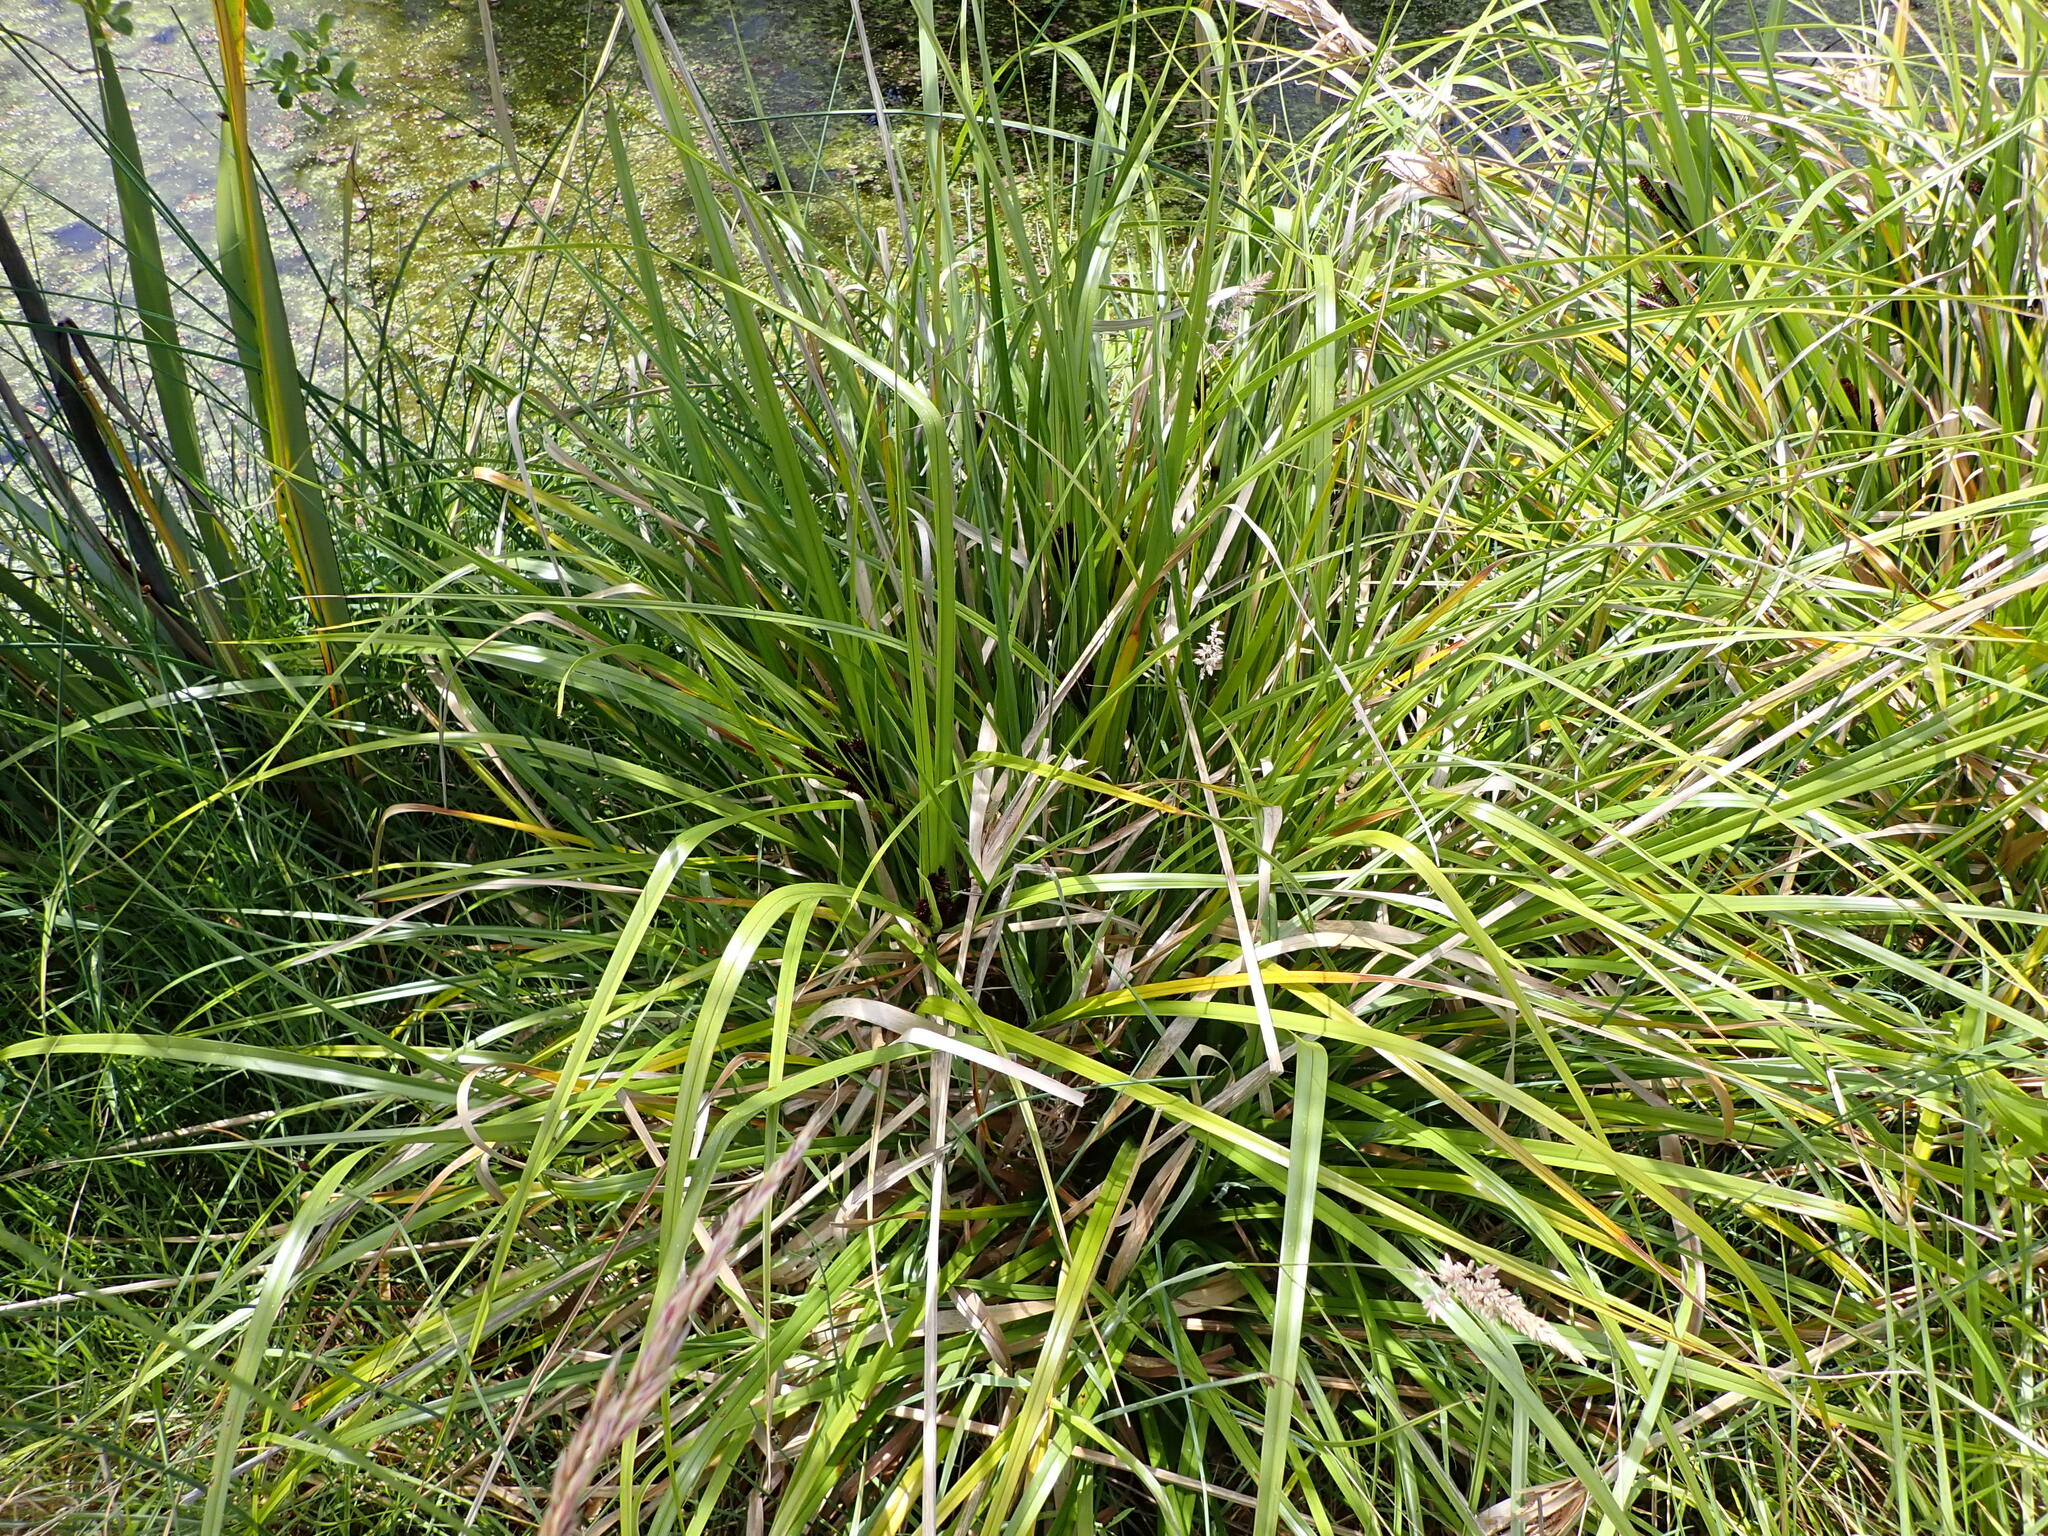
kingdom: Plantae
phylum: Tracheophyta
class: Liliopsida
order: Poales
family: Cyperaceae
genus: Cyperus
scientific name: Cyperus ustulatus
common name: Giant umbrella-sedge
